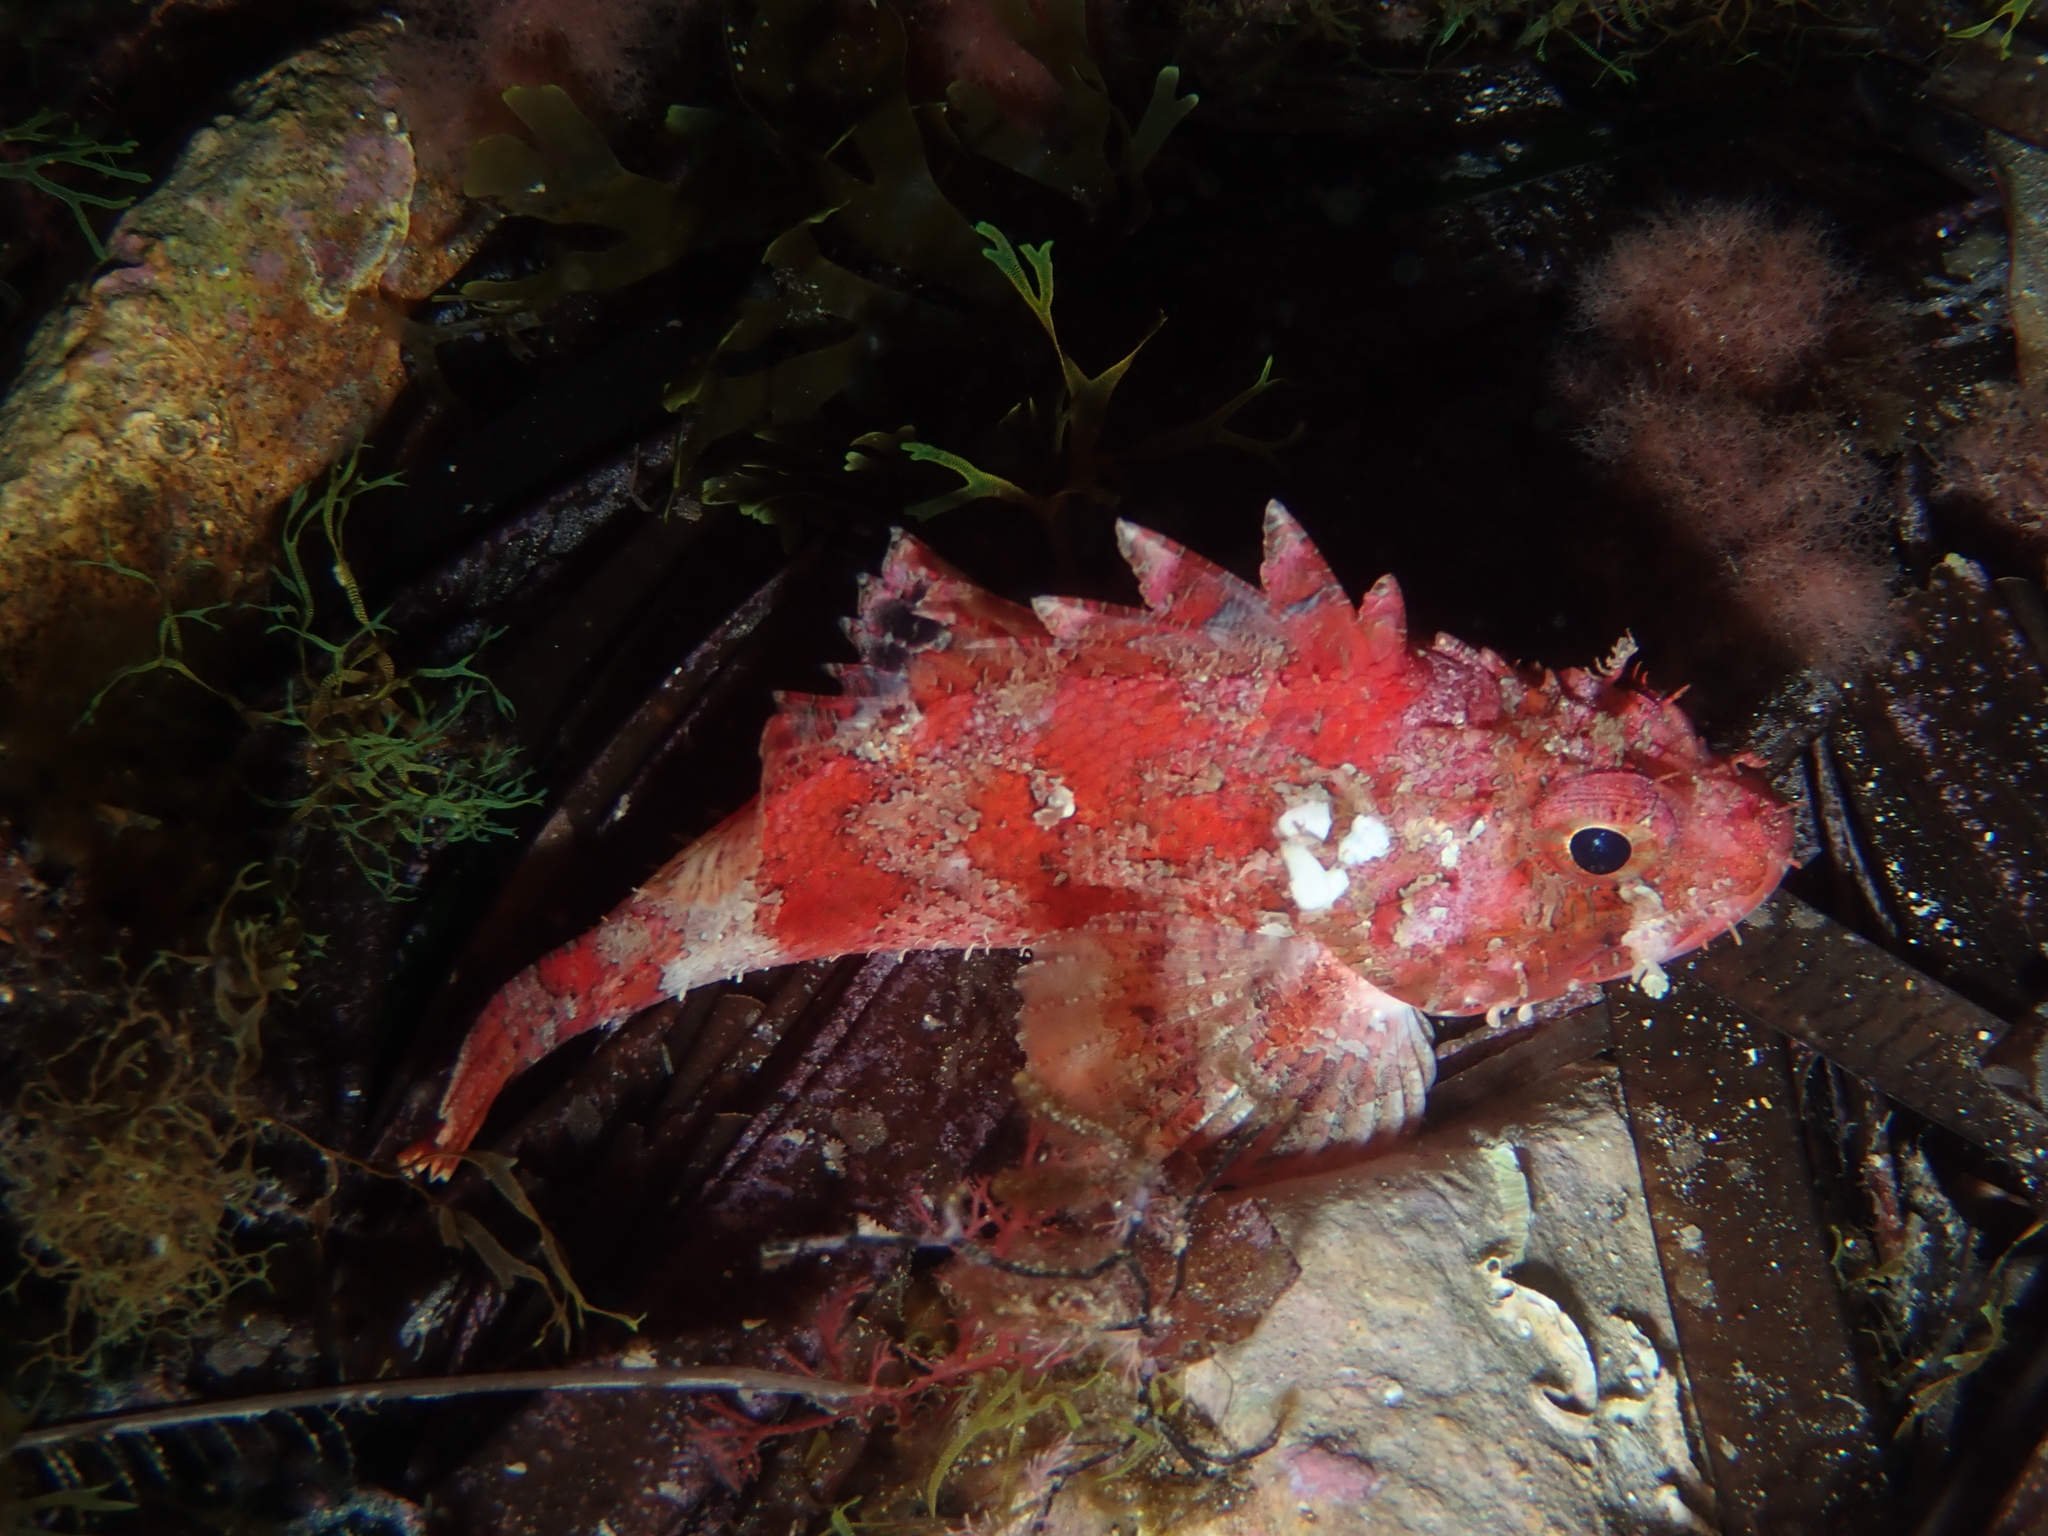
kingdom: Animalia
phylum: Chordata
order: Scorpaeniformes
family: Scorpaenidae
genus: Scorpaena
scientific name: Scorpaena notata
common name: Small red scorpionfish
